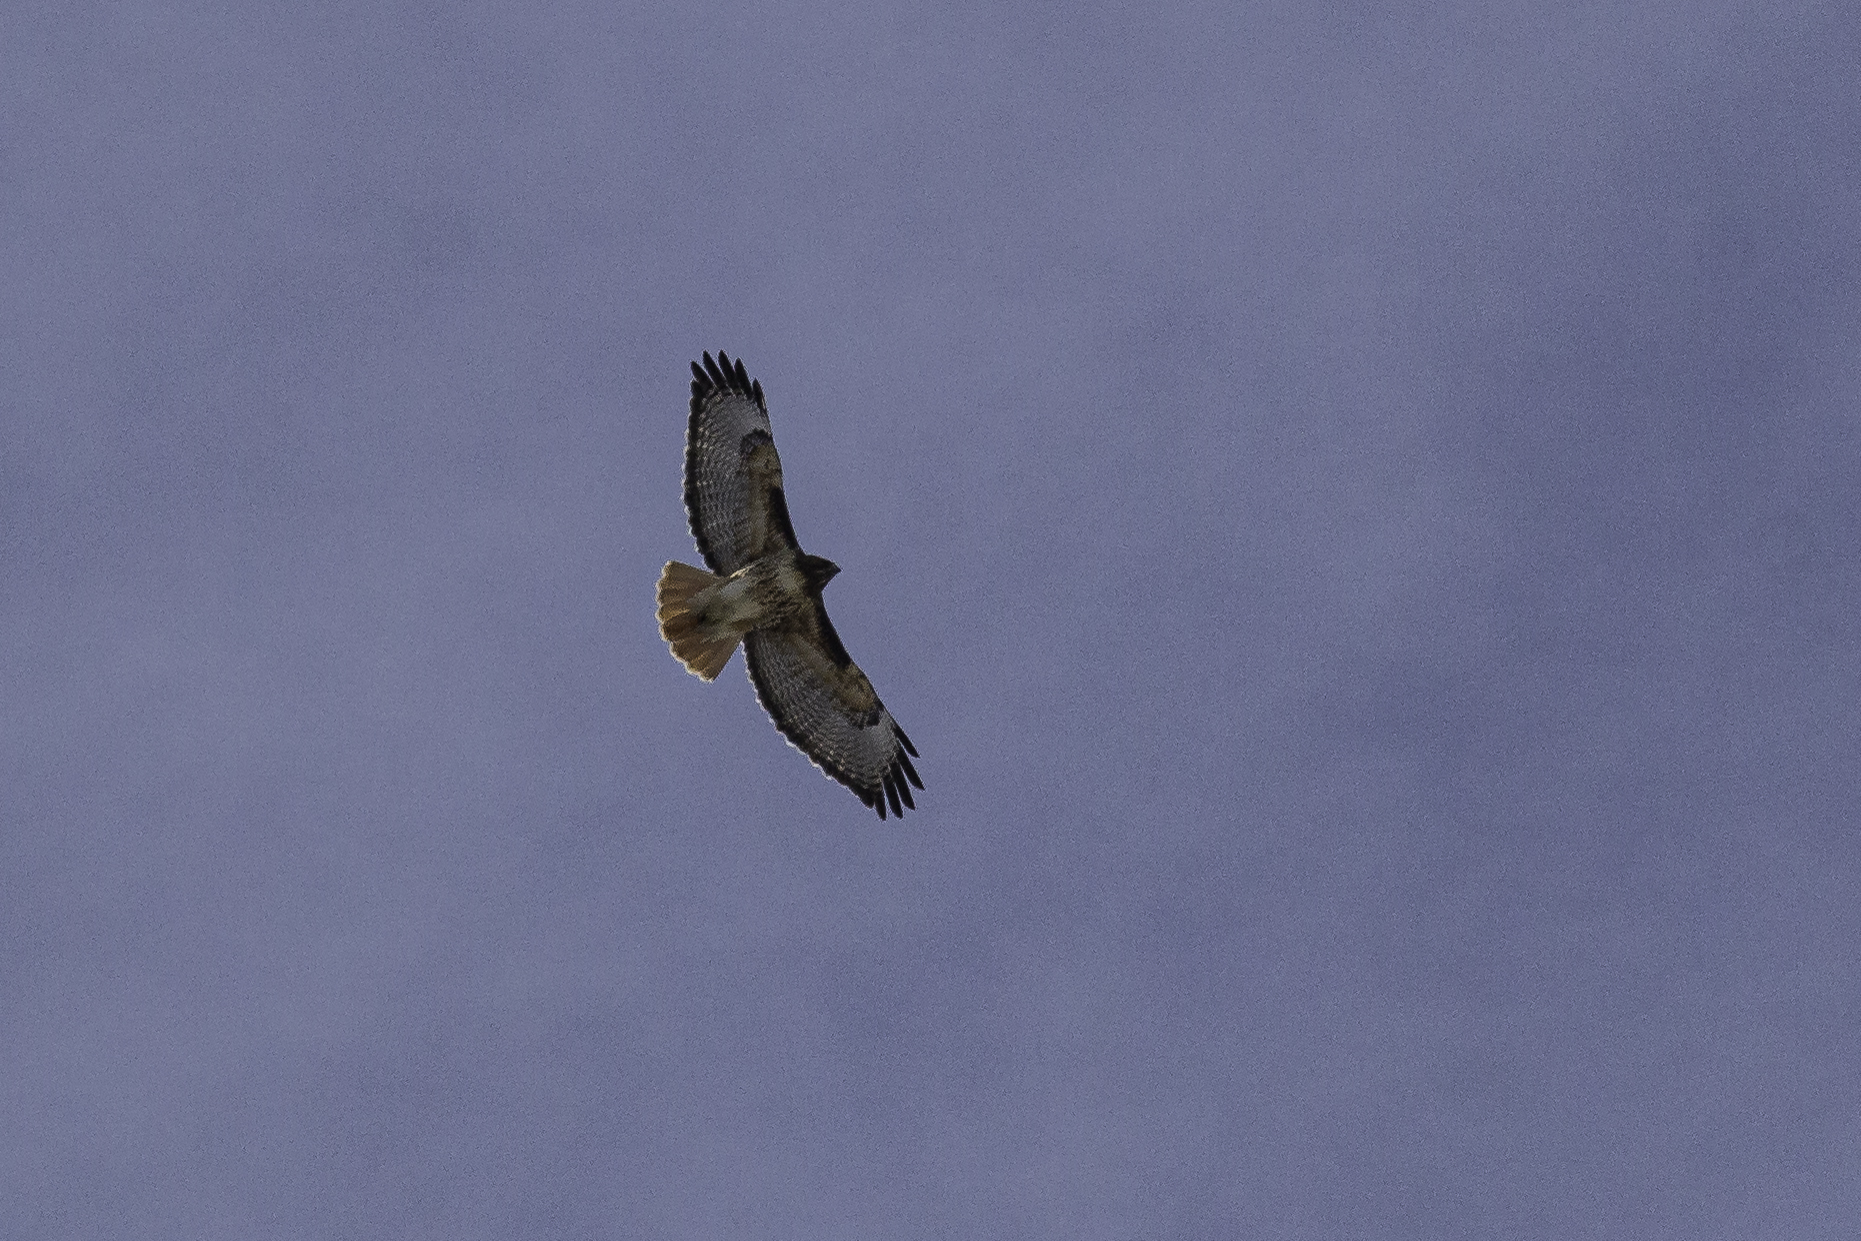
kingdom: Animalia
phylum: Chordata
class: Aves
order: Accipitriformes
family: Accipitridae
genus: Buteo
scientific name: Buteo jamaicensis
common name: Red-tailed hawk
